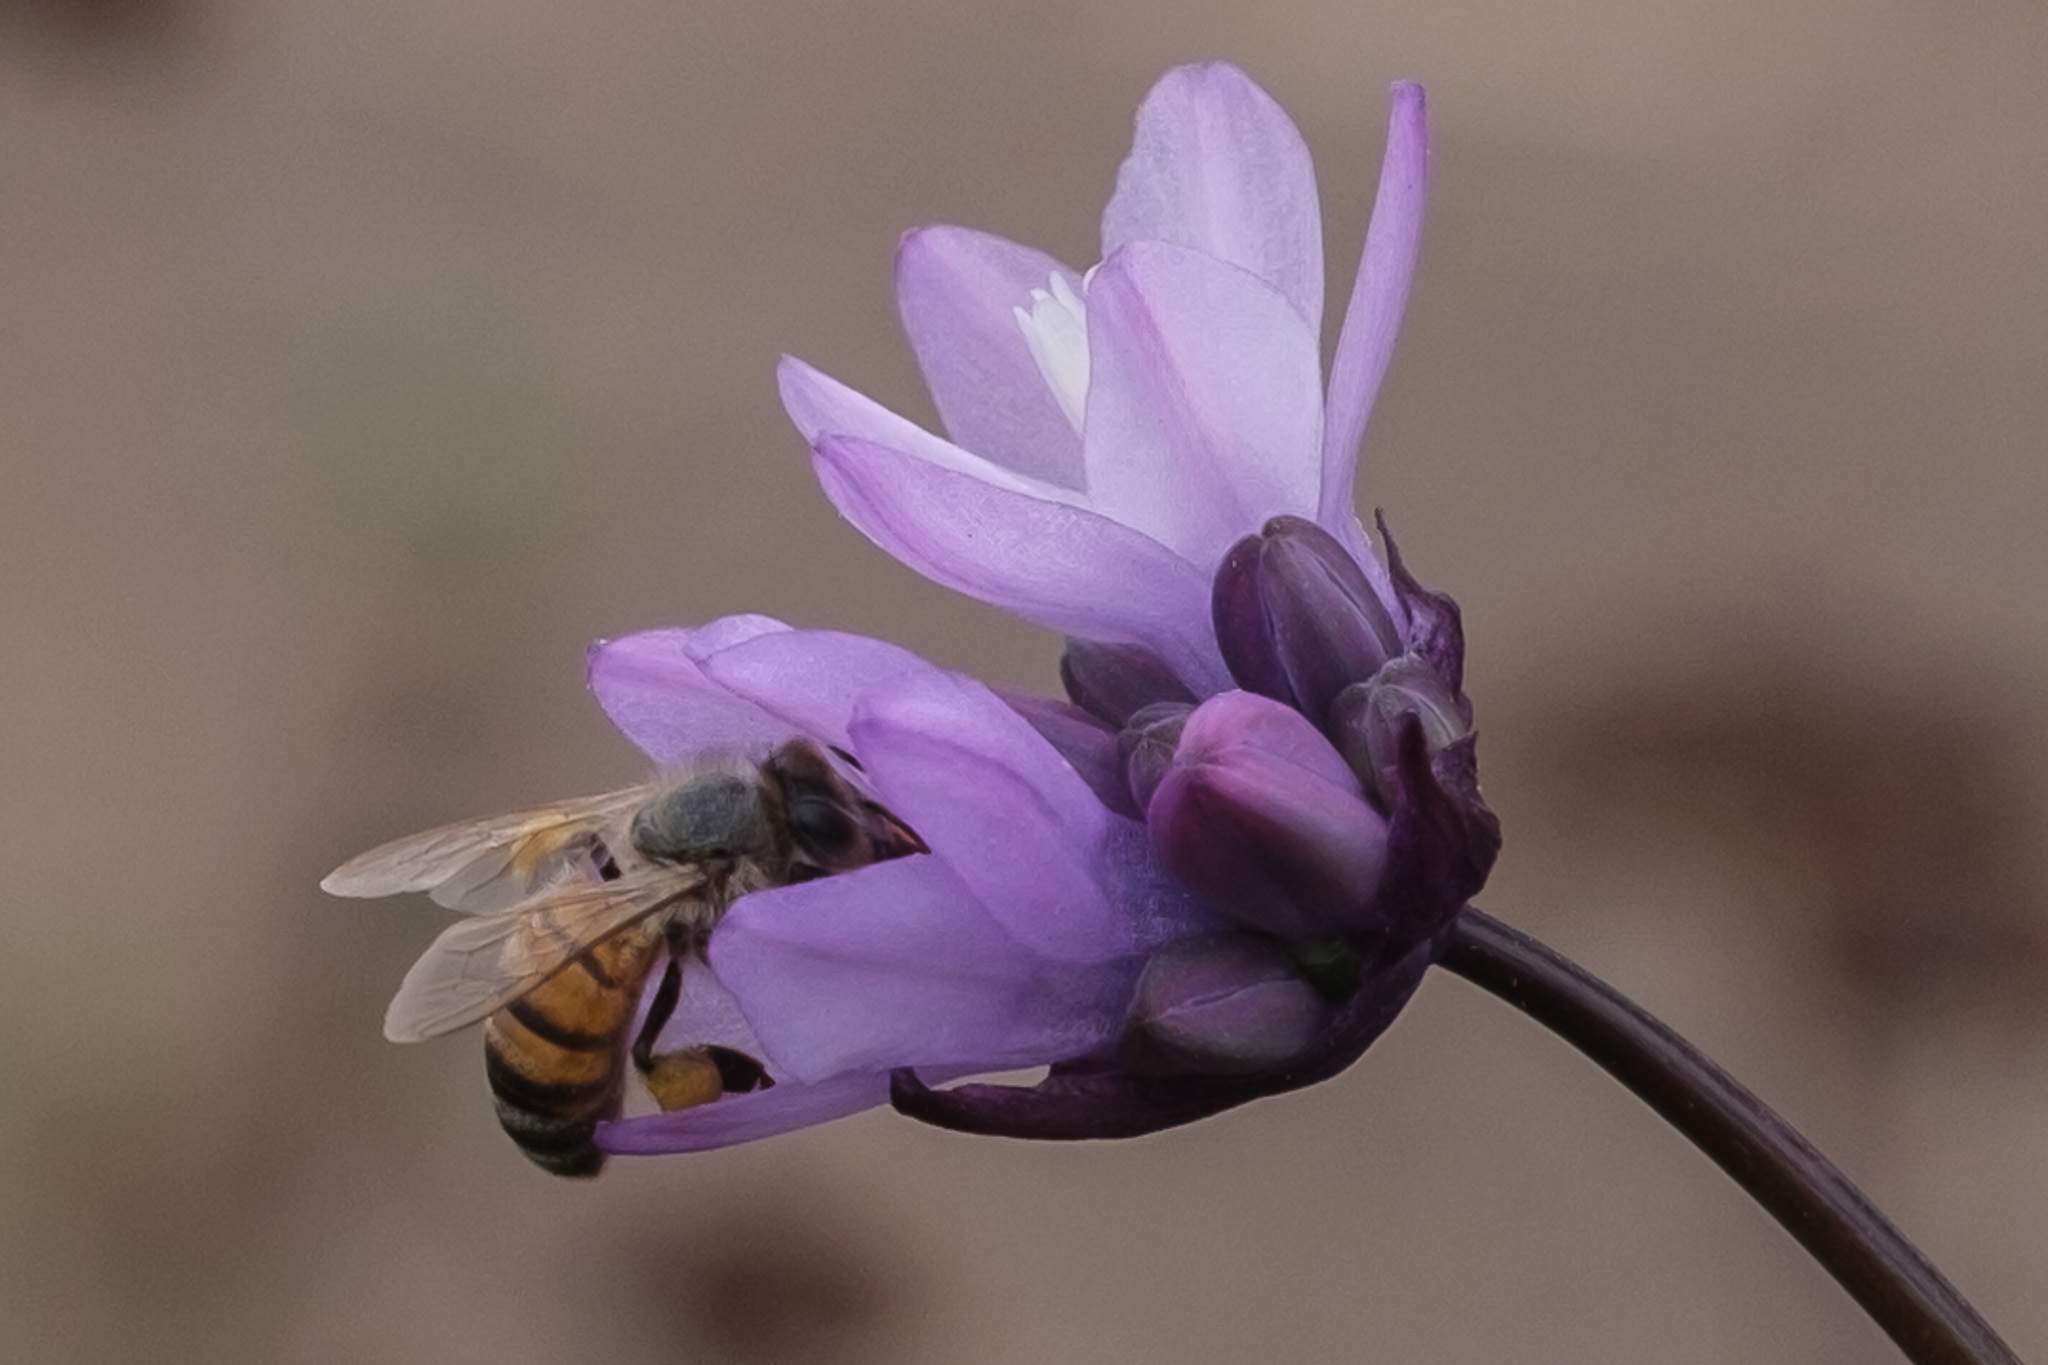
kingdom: Plantae
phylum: Tracheophyta
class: Liliopsida
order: Asparagales
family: Asparagaceae
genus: Dipterostemon
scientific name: Dipterostemon capitatus
